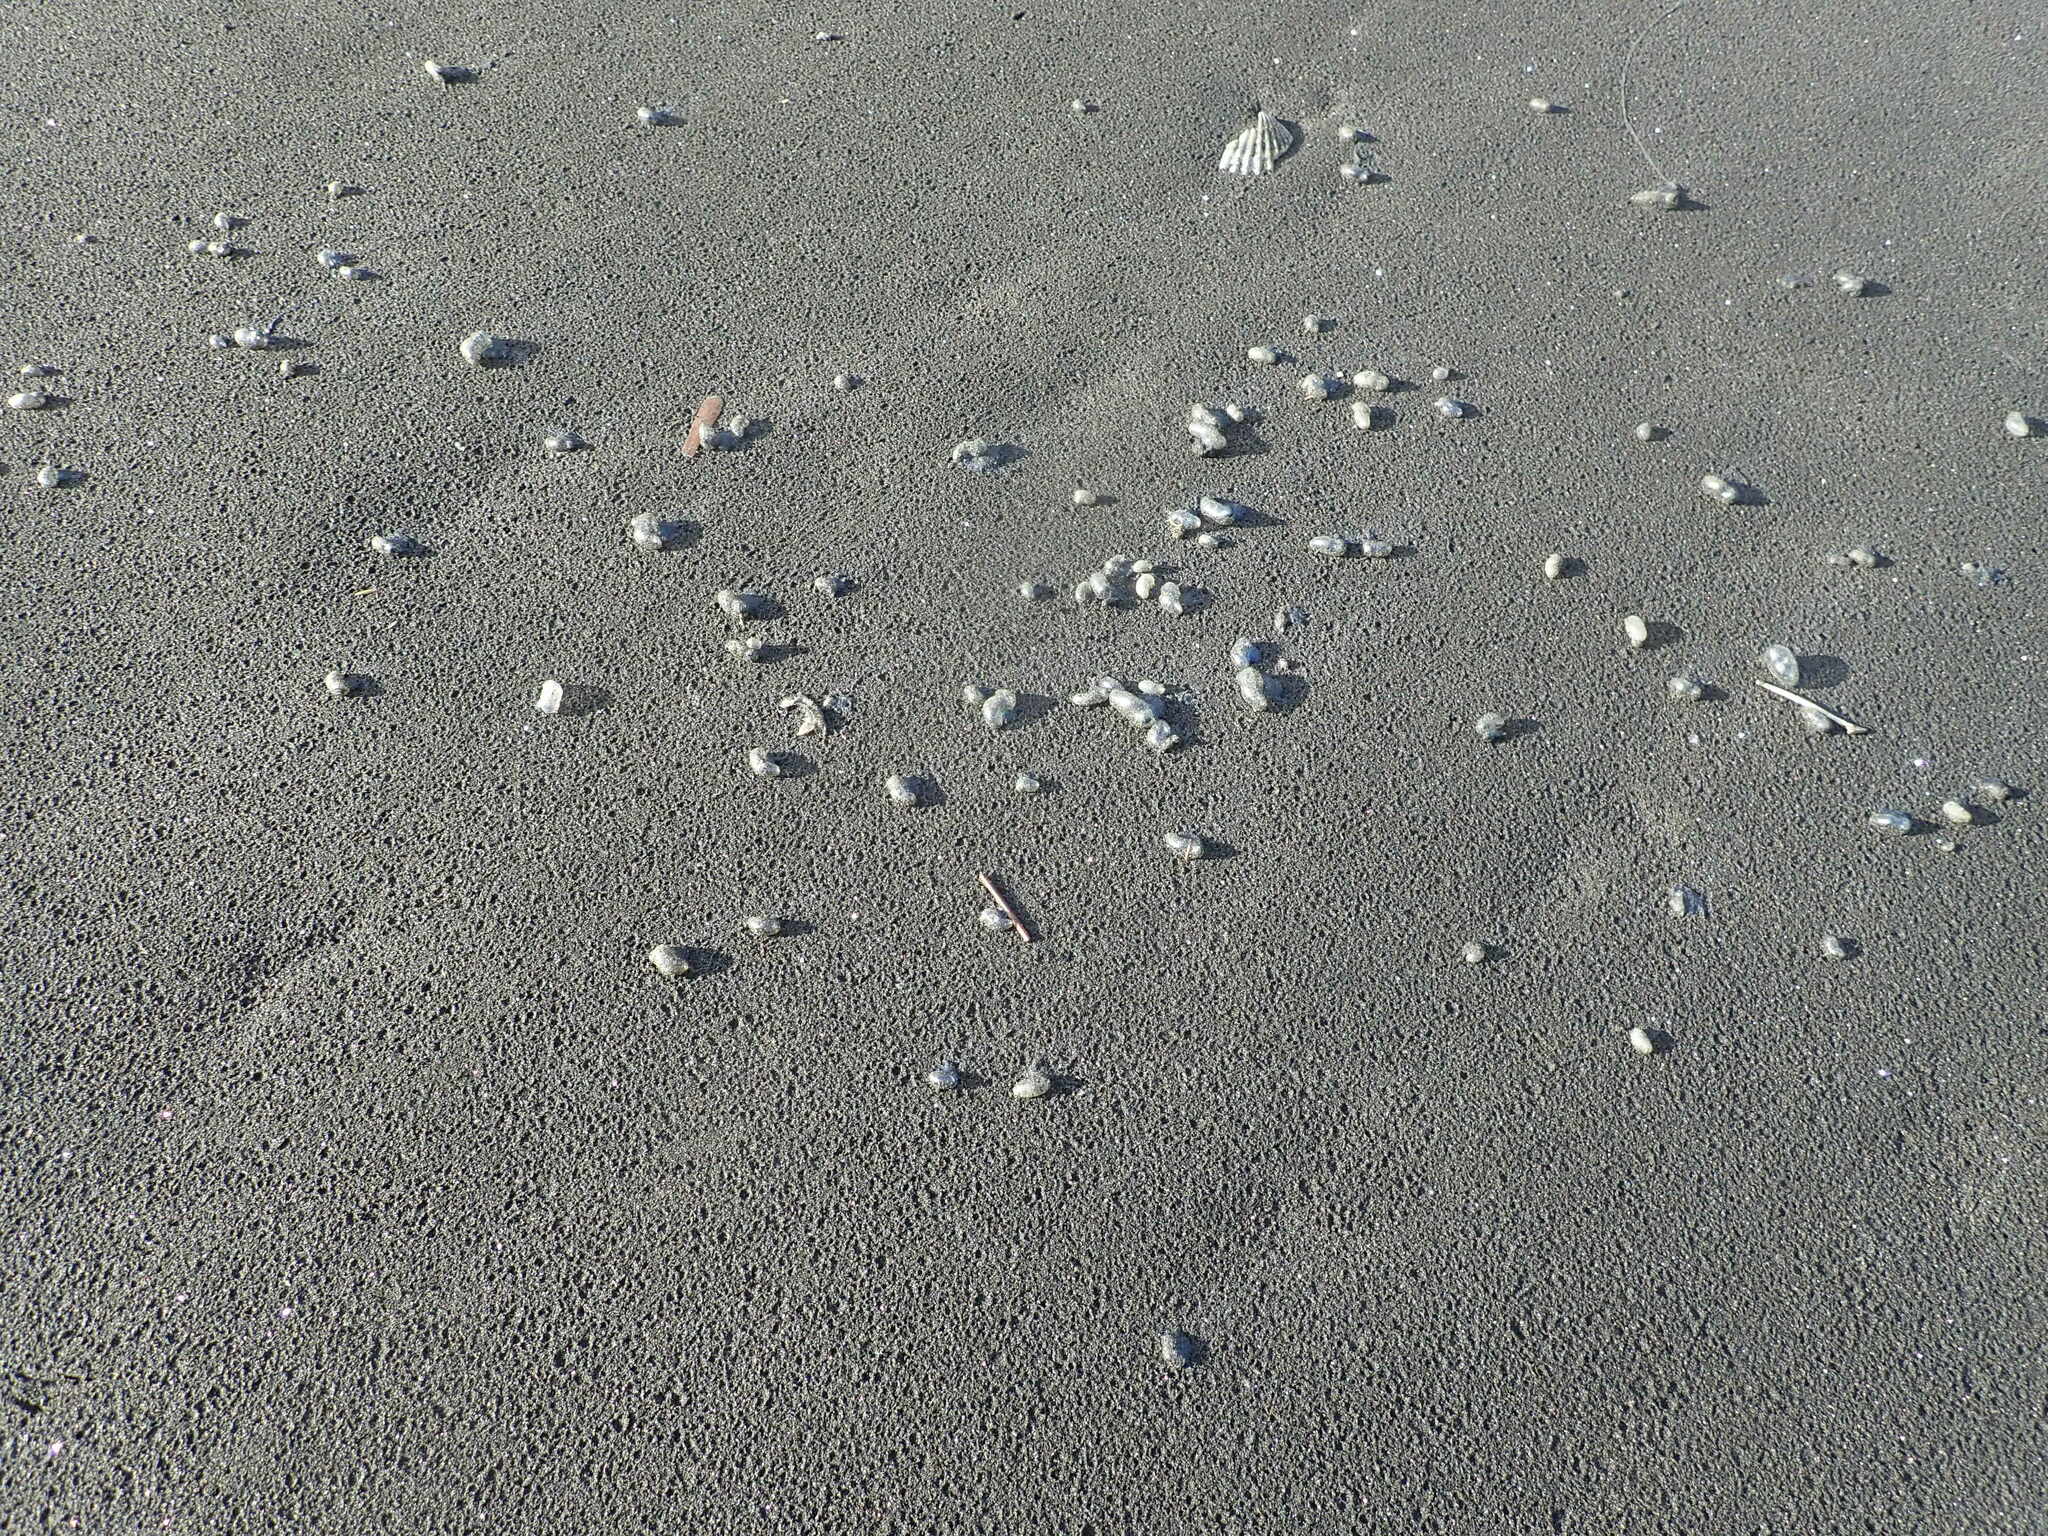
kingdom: Animalia
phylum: Cnidaria
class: Hydrozoa
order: Siphonophorae
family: Physaliidae
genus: Physalia
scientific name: Physalia physalis
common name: Portuguese man-of-war
